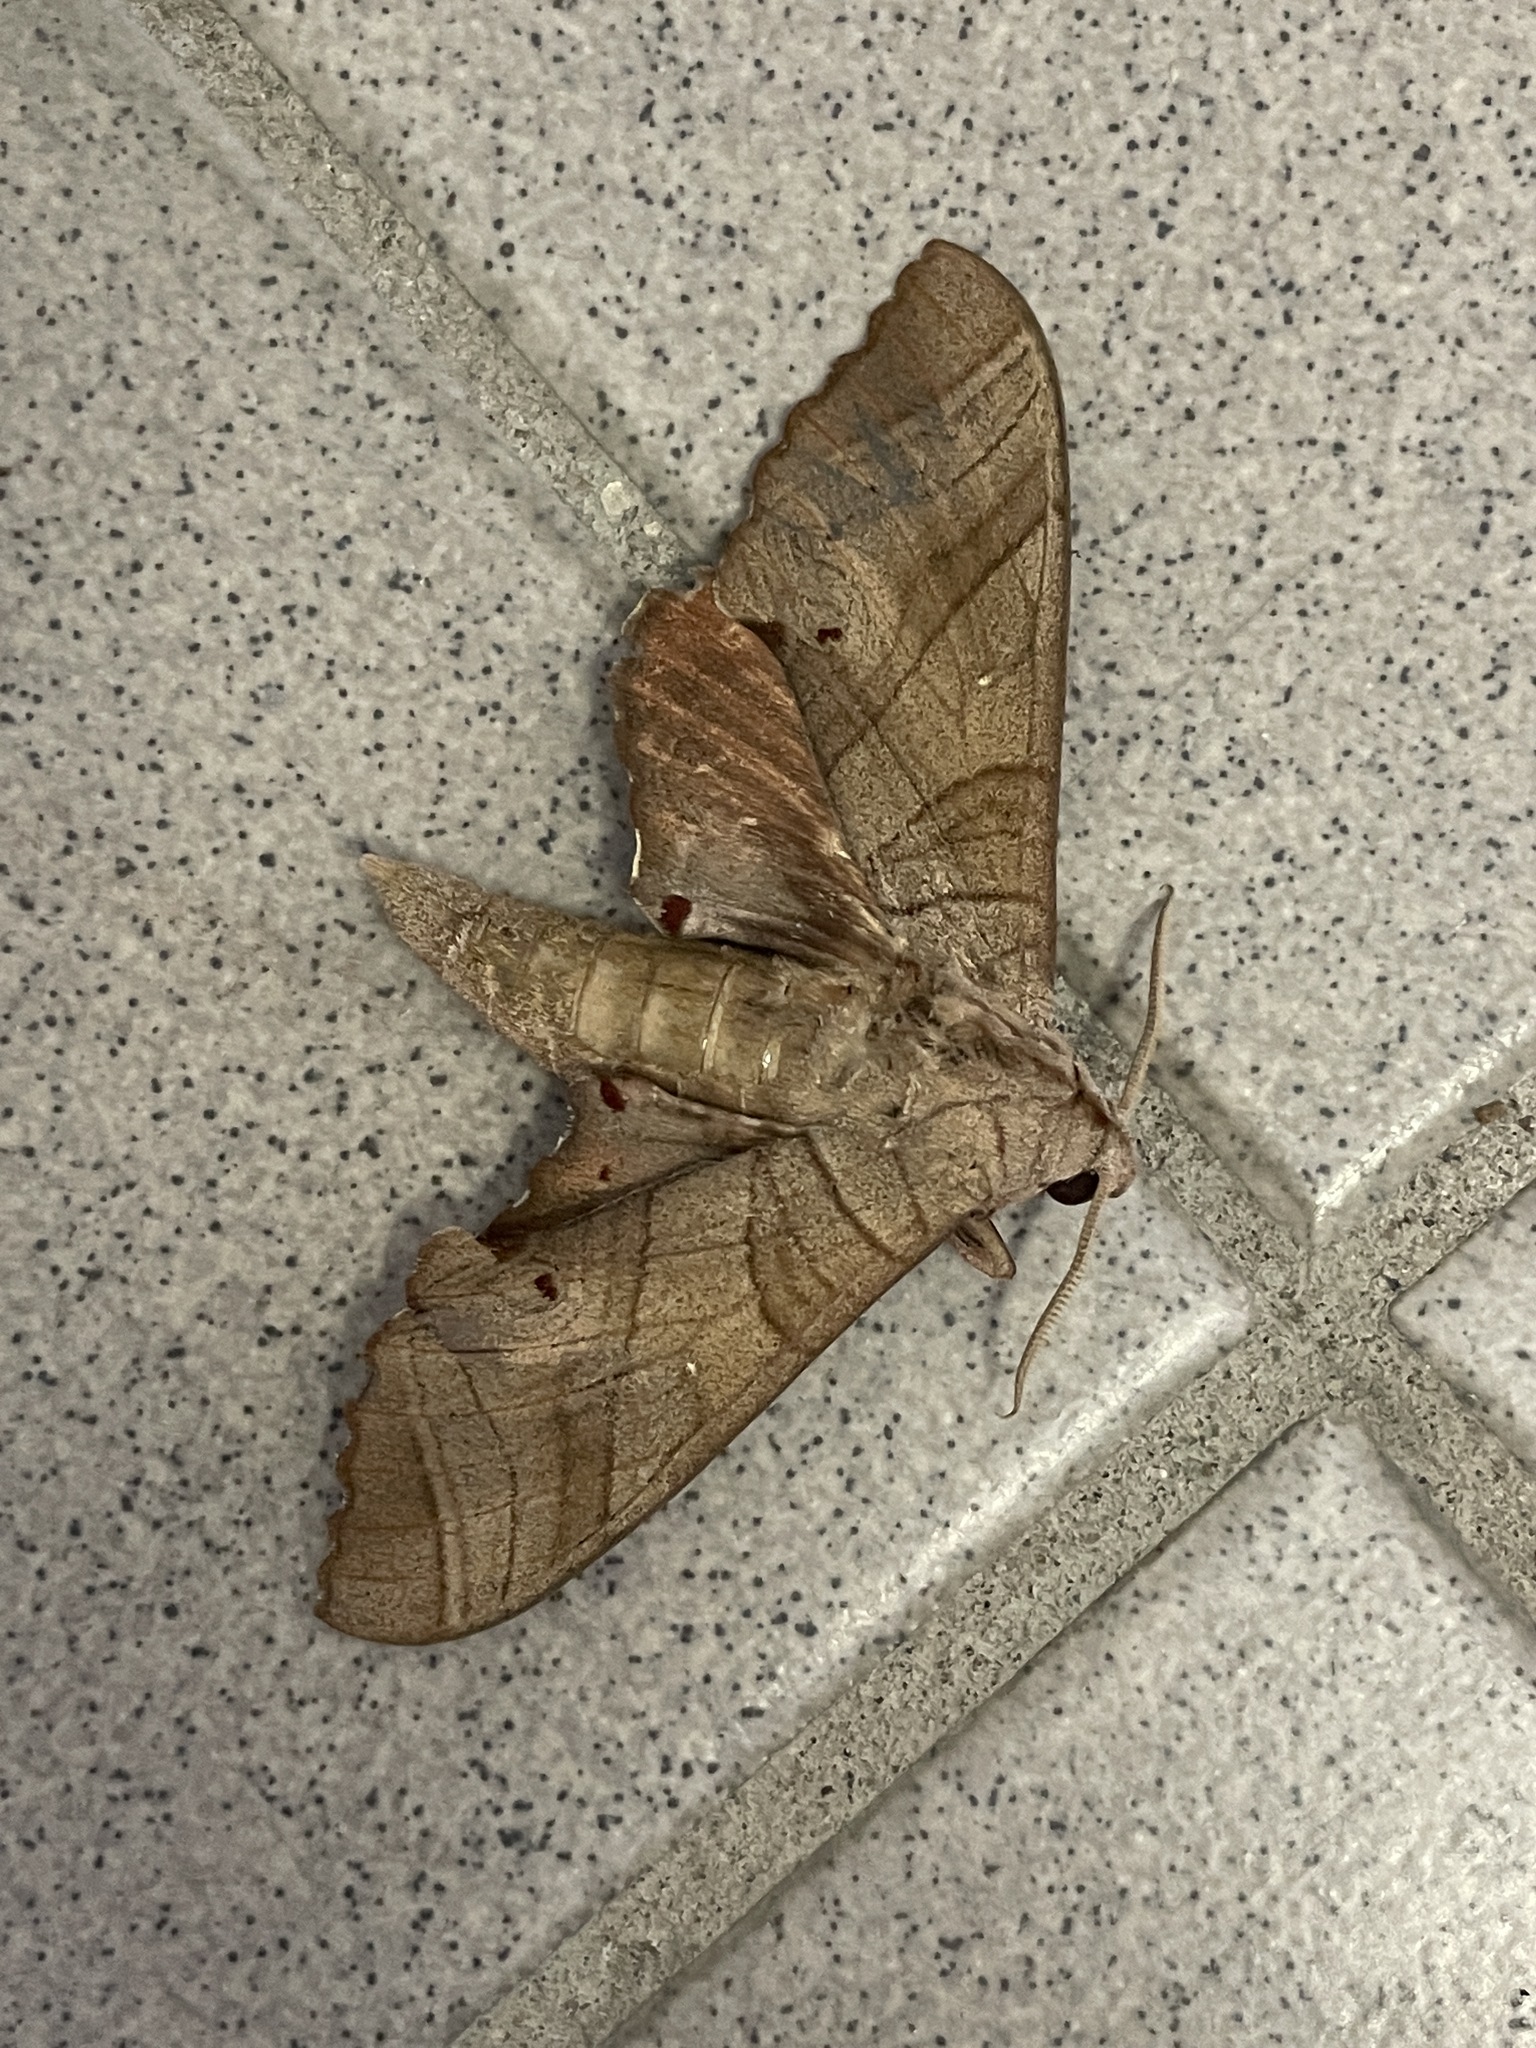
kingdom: Animalia
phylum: Arthropoda
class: Insecta
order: Lepidoptera
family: Sphingidae
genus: Marumba
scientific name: Marumba dyras
